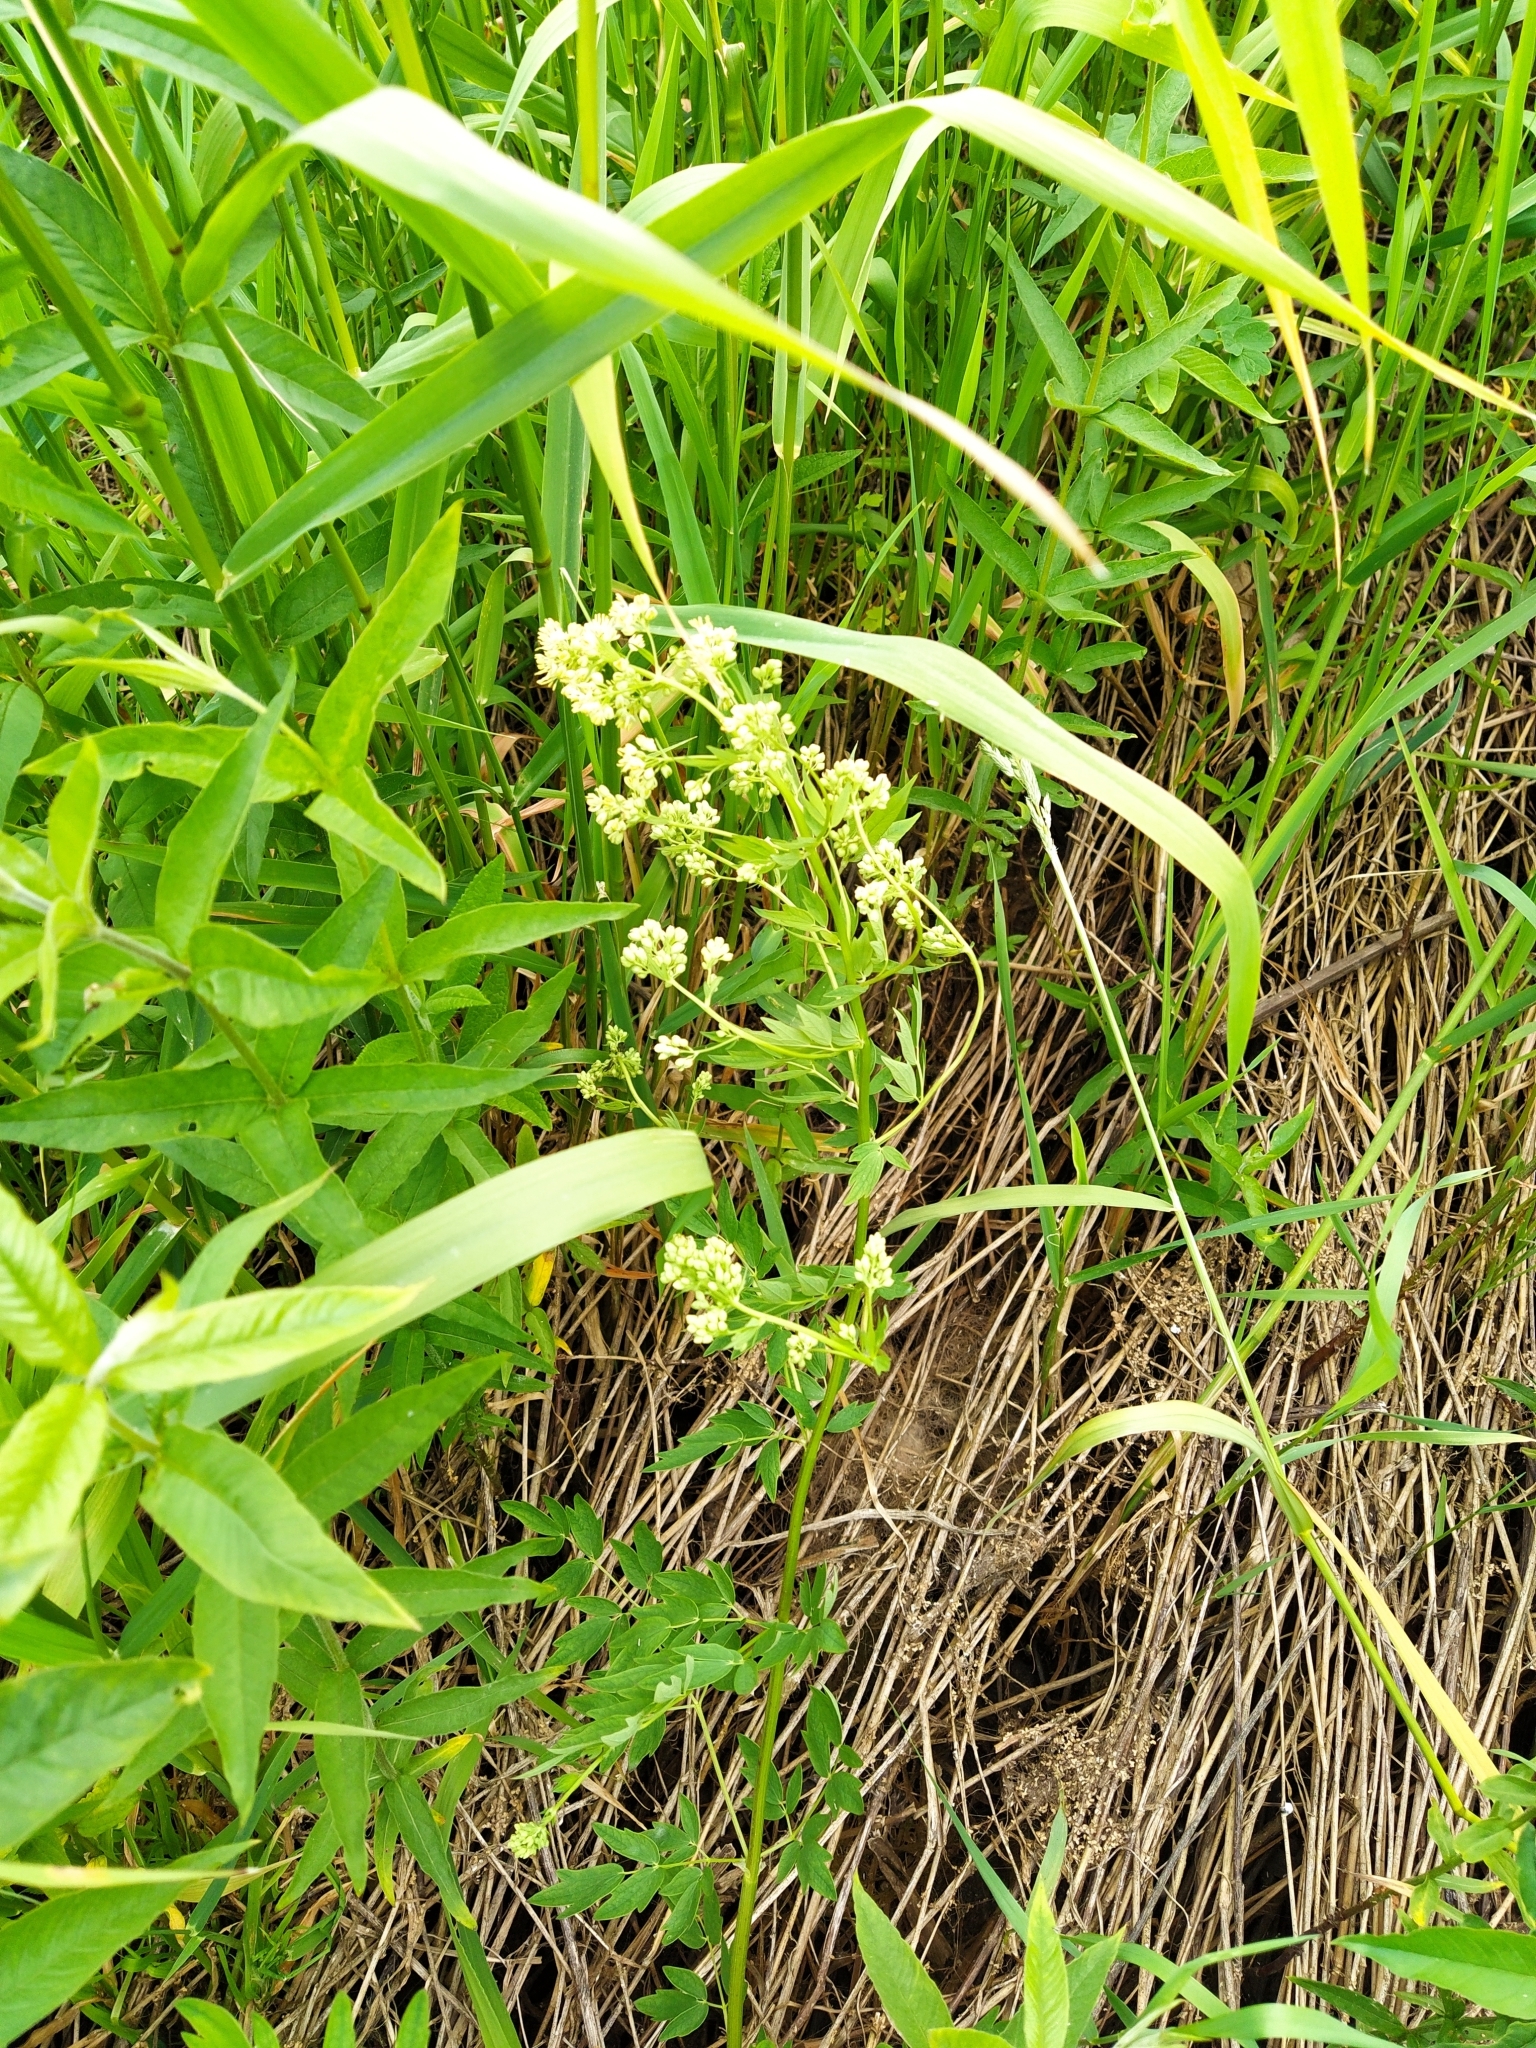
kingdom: Plantae
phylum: Tracheophyta
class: Magnoliopsida
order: Ranunculales
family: Ranunculaceae
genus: Thalictrum
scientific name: Thalictrum flavum
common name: Common meadow-rue
